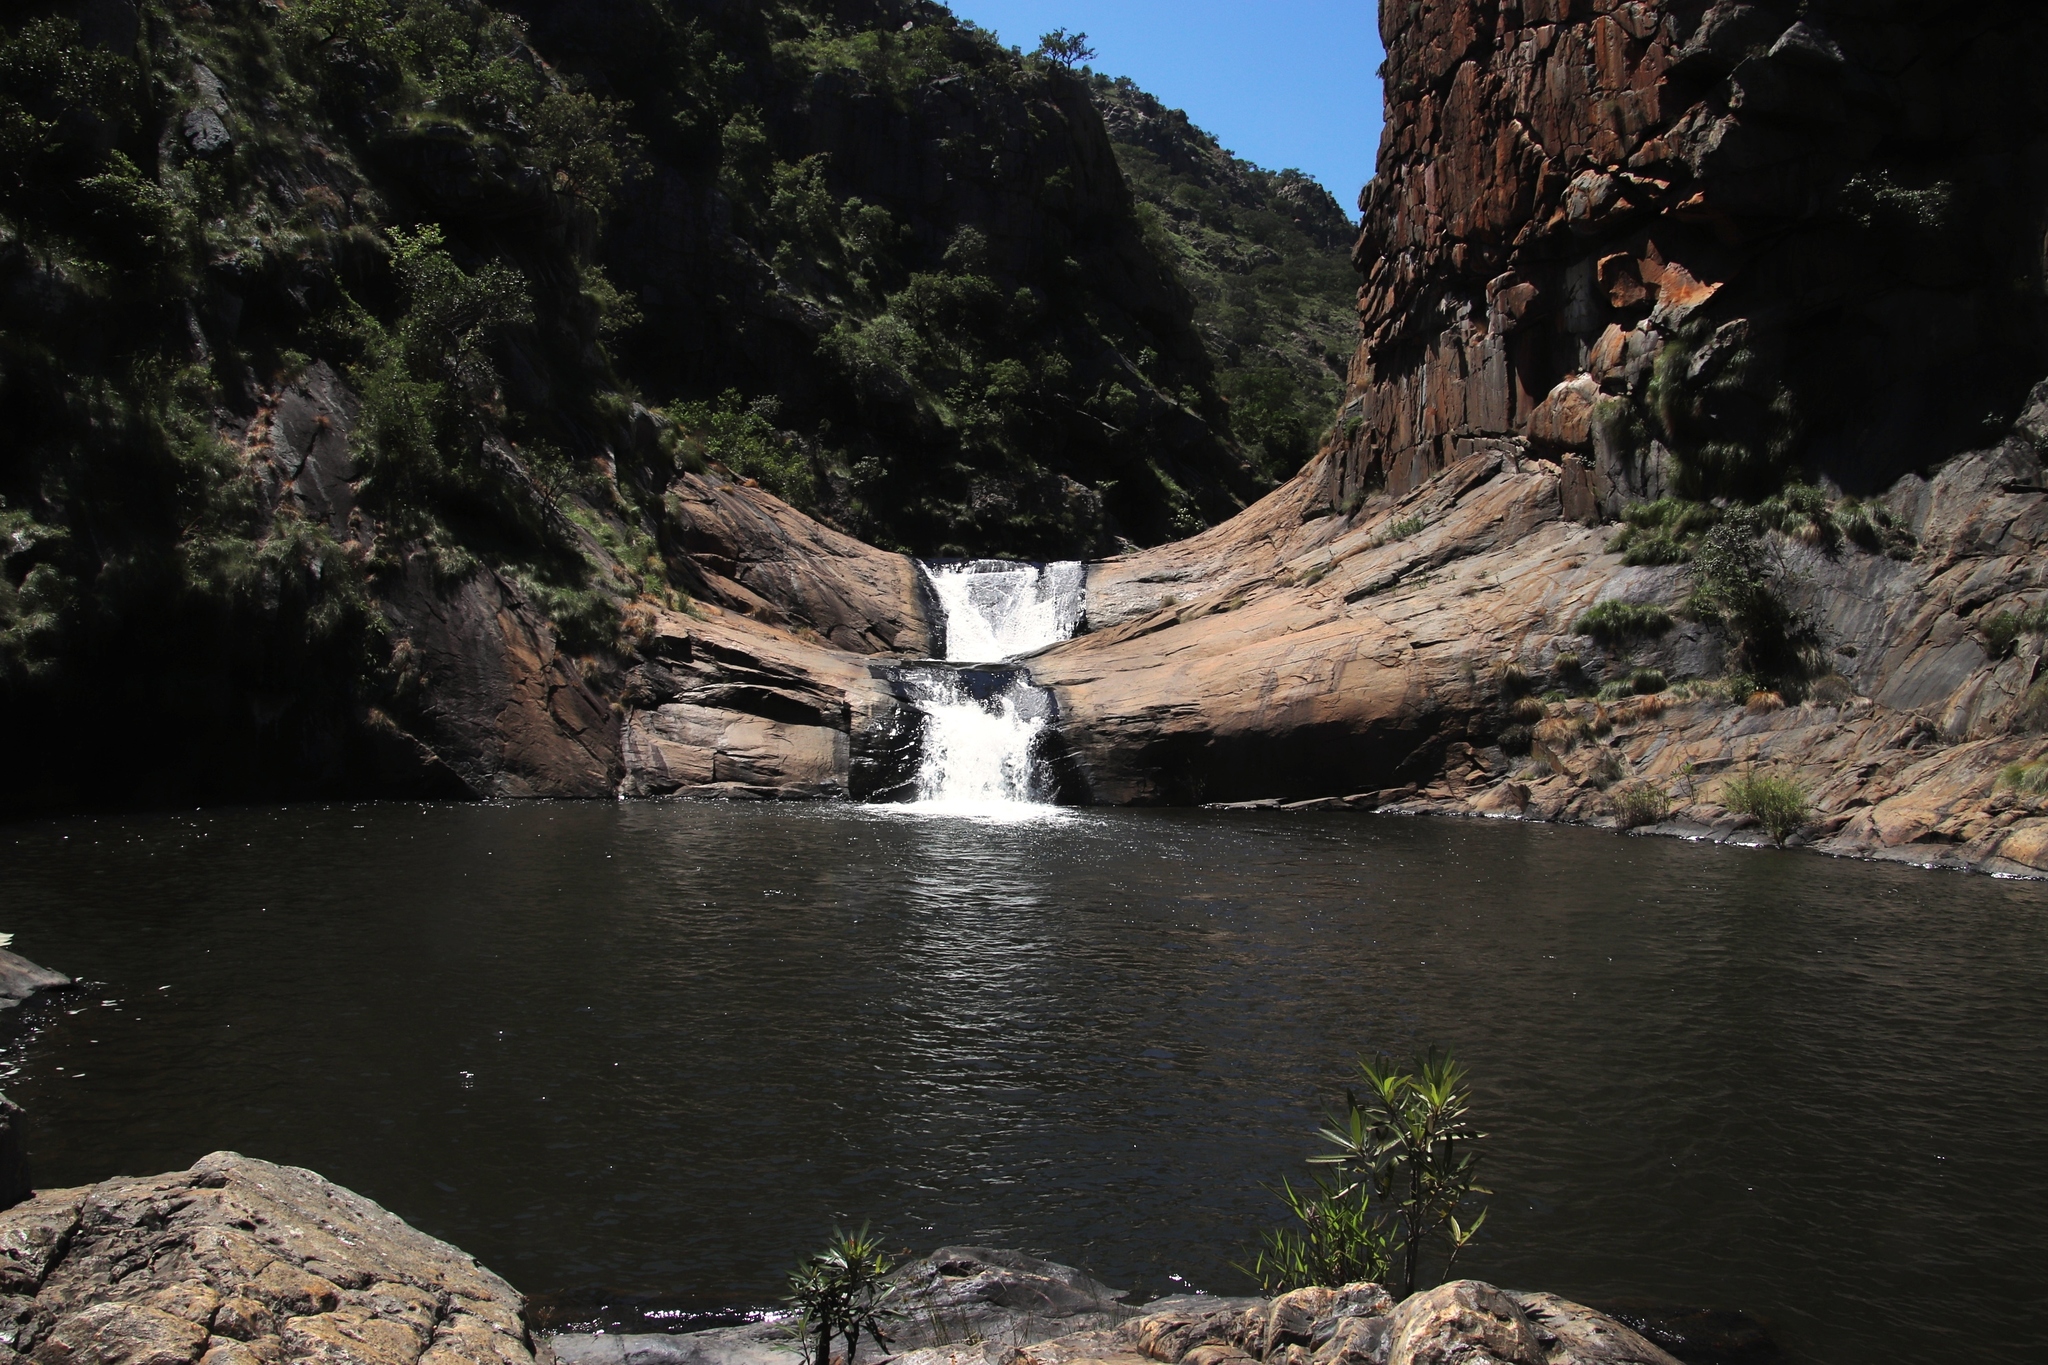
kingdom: Plantae
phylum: Tracheophyta
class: Magnoliopsida
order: Gentianales
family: Rubiaceae
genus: Breonadia
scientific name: Breonadia salicina
